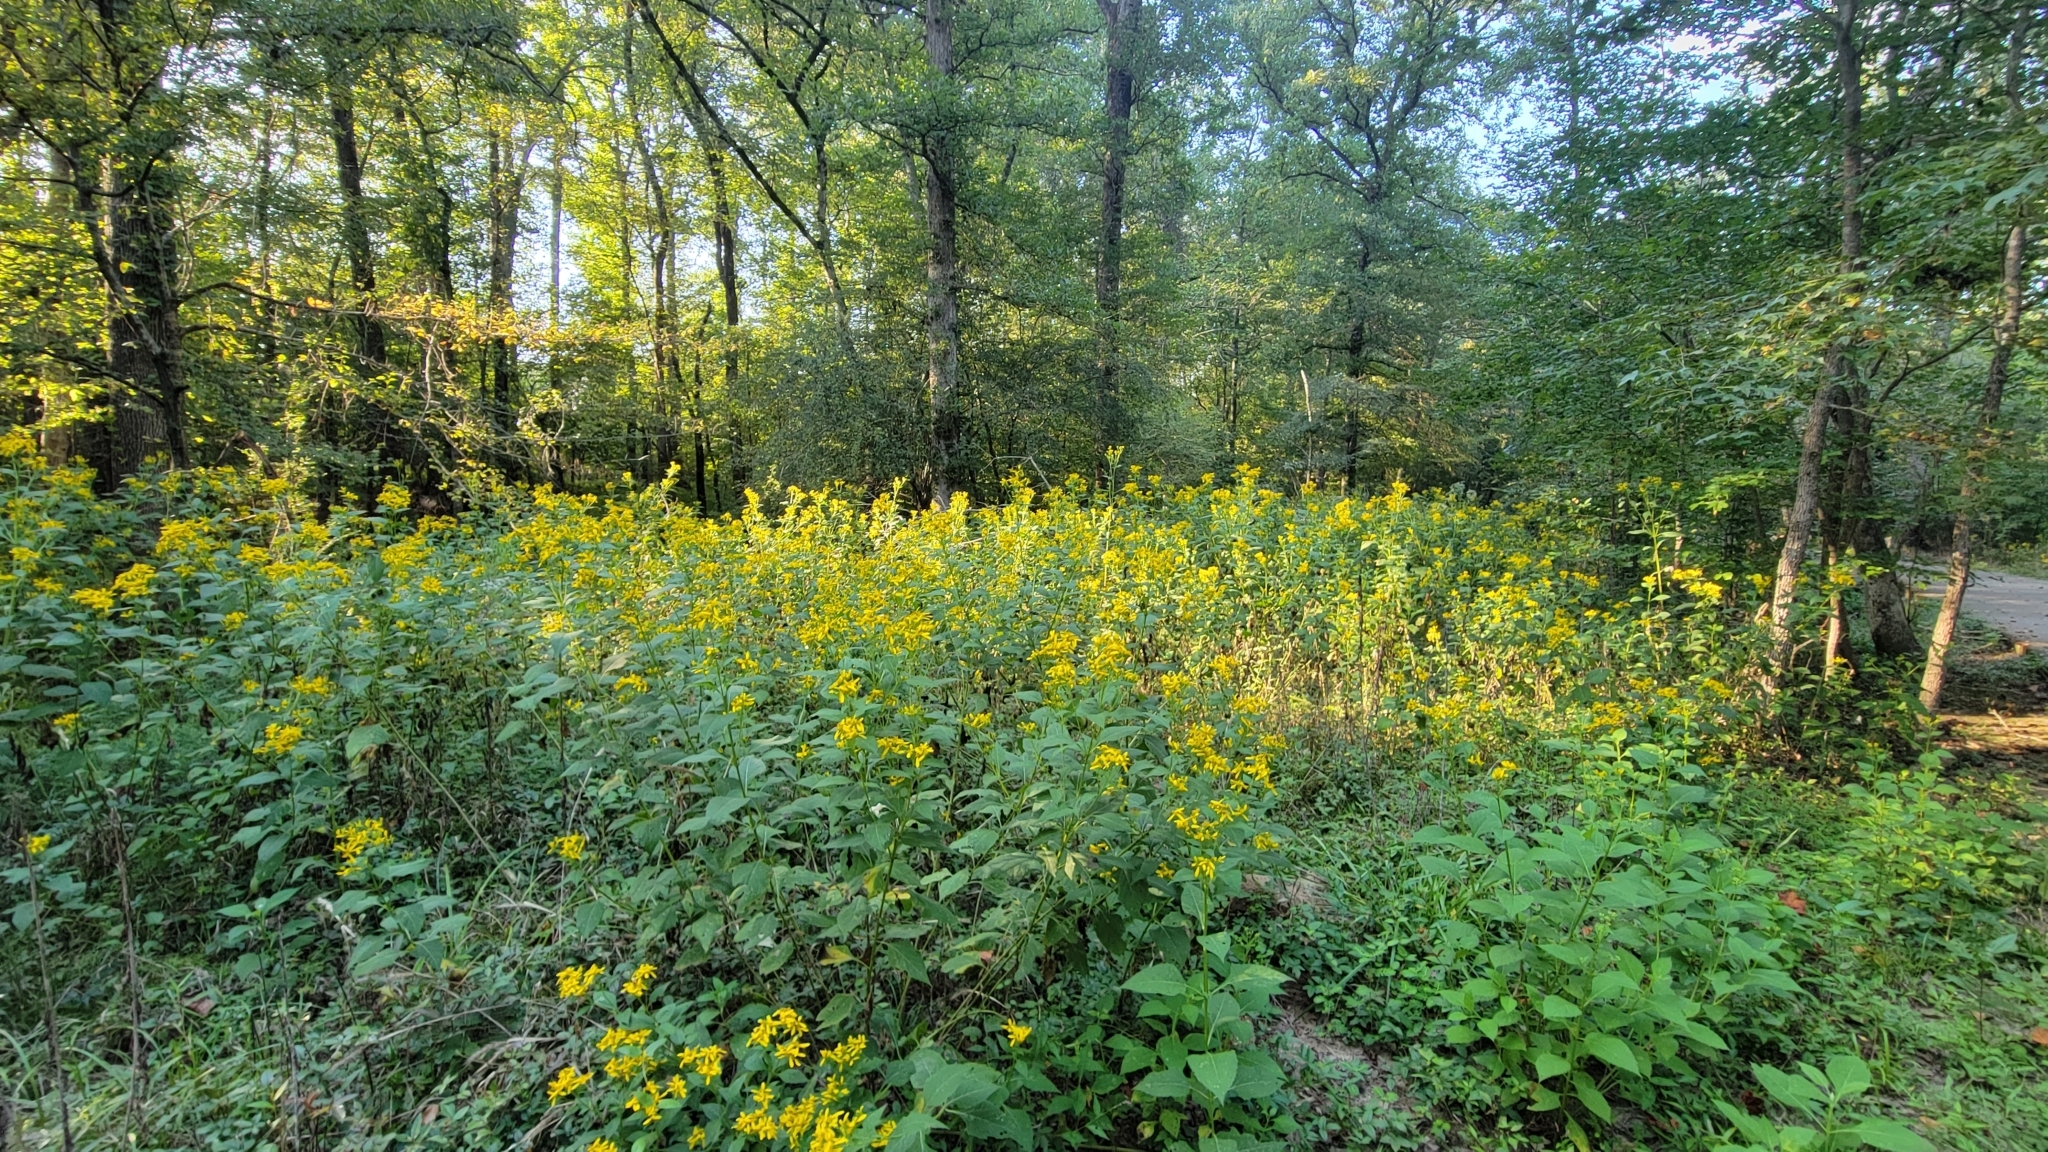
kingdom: Plantae
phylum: Tracheophyta
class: Magnoliopsida
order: Asterales
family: Asteraceae
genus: Verbesina
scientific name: Verbesina occidentalis
